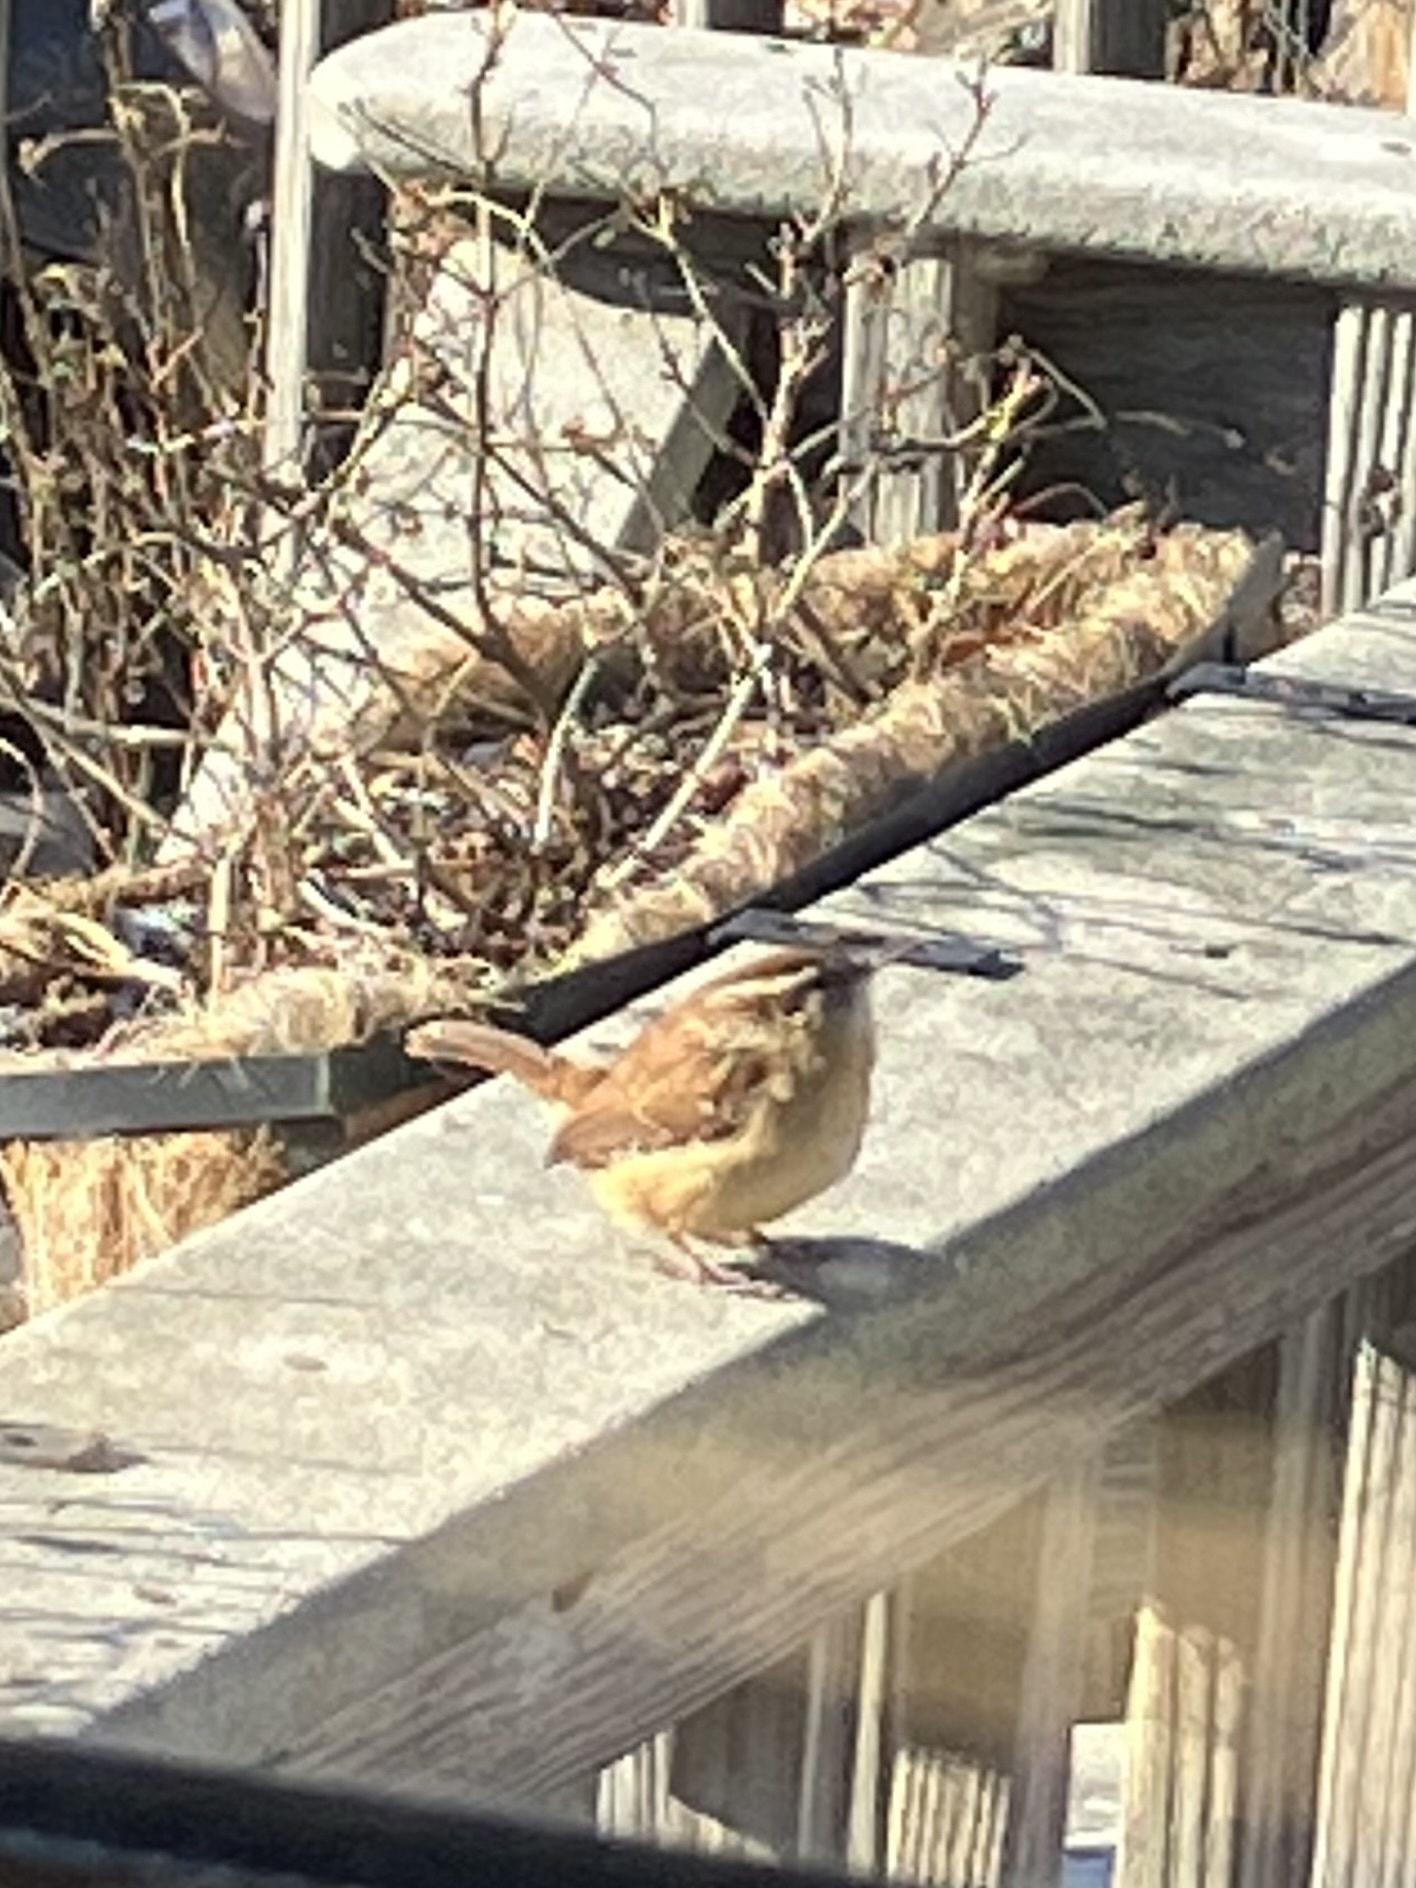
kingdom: Animalia
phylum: Chordata
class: Aves
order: Passeriformes
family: Troglodytidae
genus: Thryothorus
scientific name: Thryothorus ludovicianus
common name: Carolina wren
